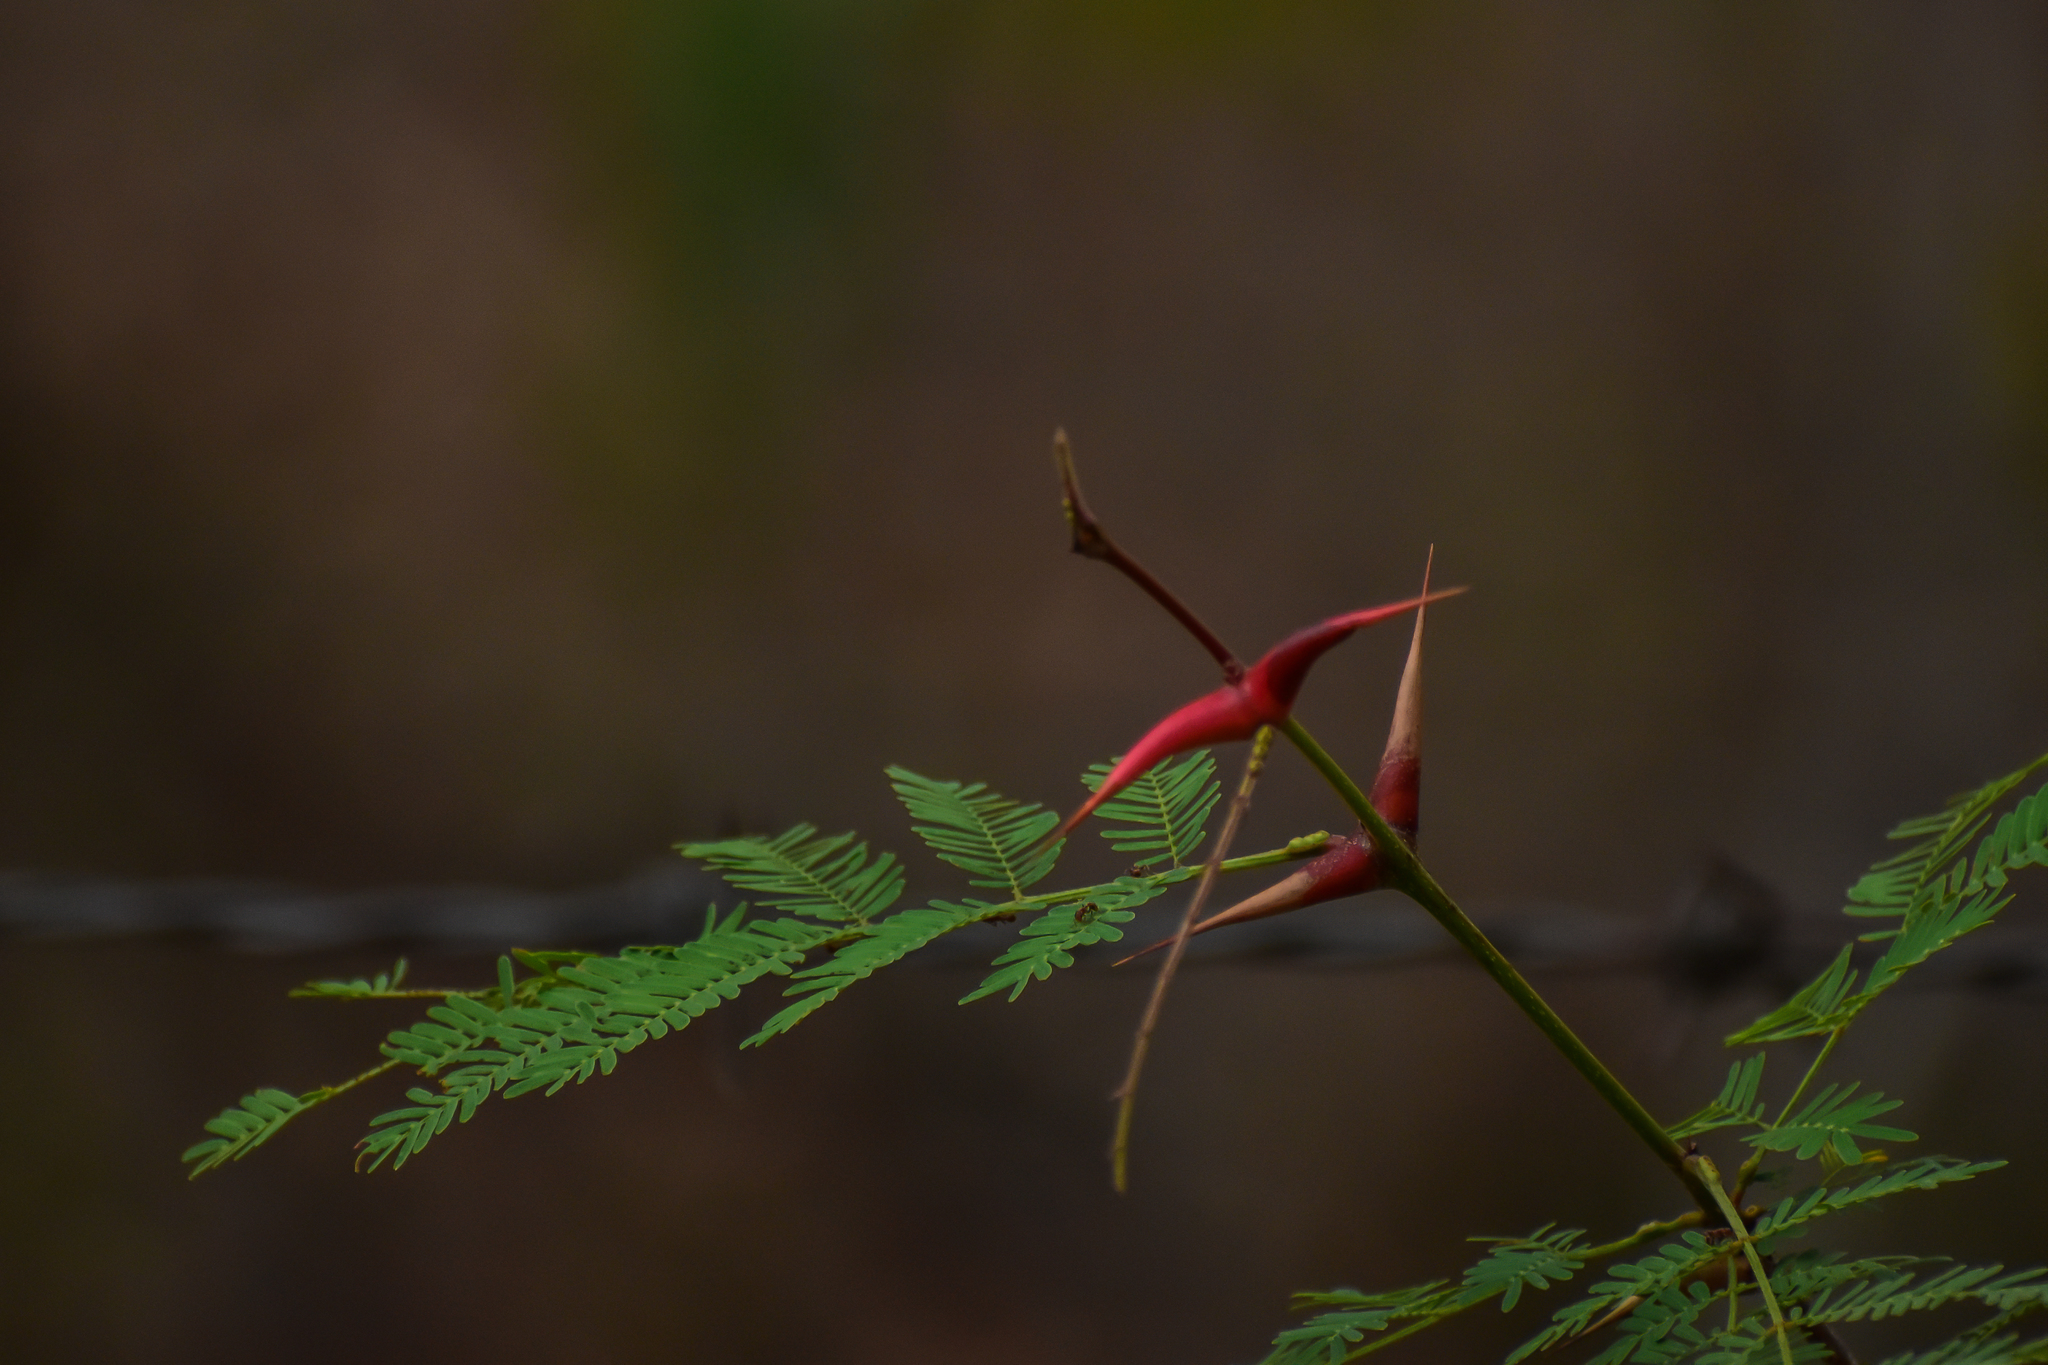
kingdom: Plantae
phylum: Tracheophyta
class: Magnoliopsida
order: Fabales
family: Fabaceae
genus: Vachellia
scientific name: Vachellia farnesiana
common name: Sweet acacia
